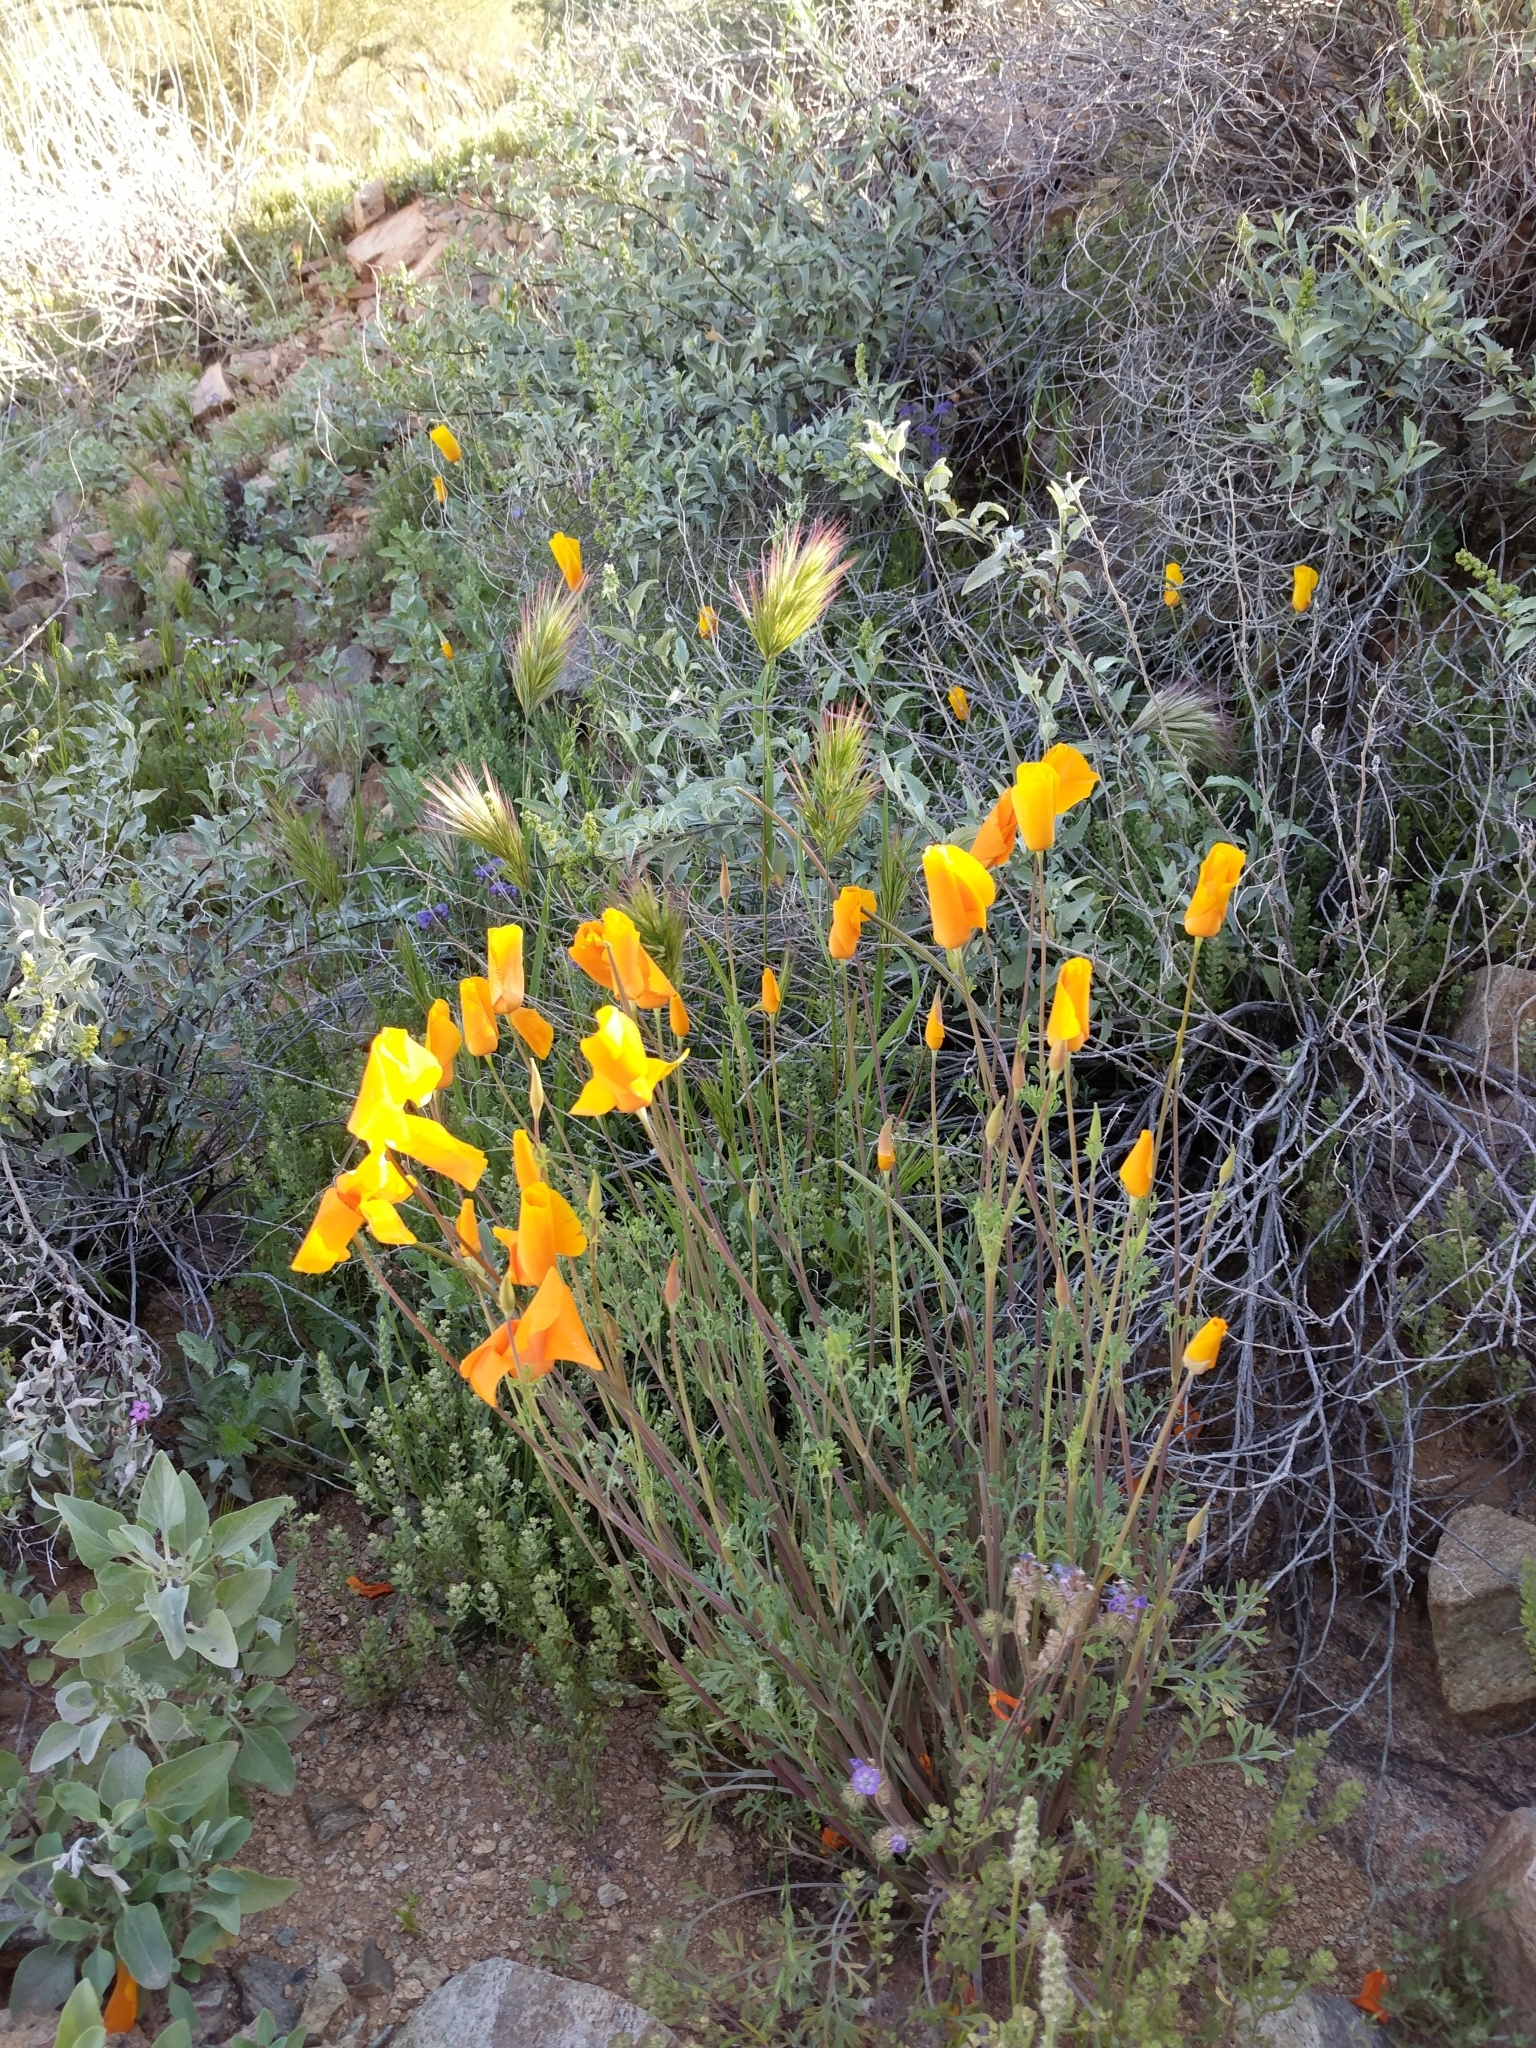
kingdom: Plantae
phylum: Tracheophyta
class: Magnoliopsida
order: Ranunculales
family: Papaveraceae
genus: Eschscholzia
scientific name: Eschscholzia californica
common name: California poppy
